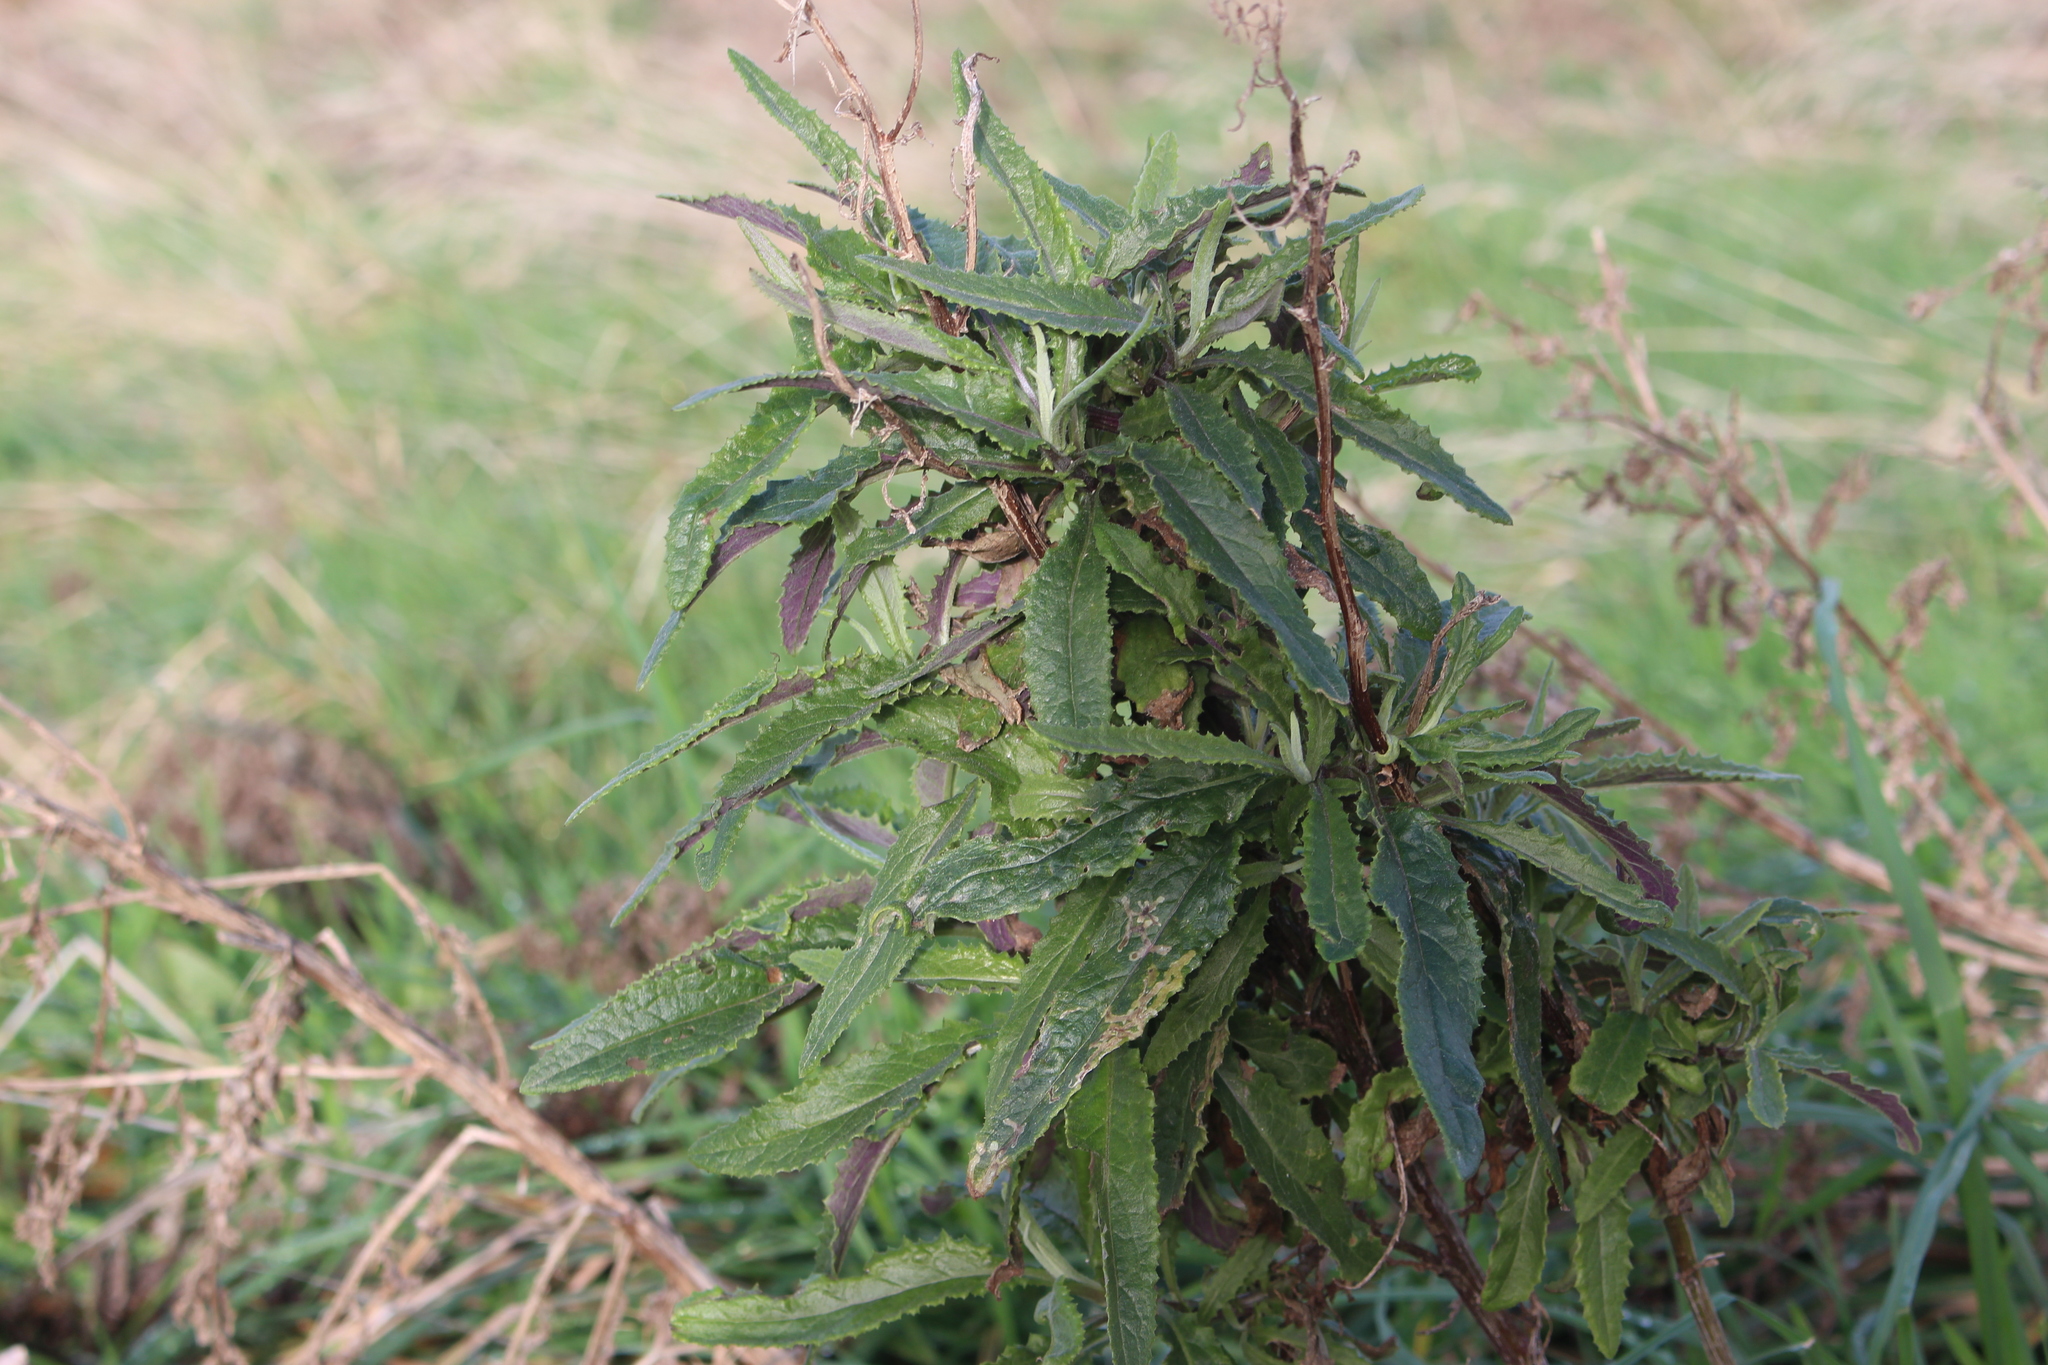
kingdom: Plantae
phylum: Tracheophyta
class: Magnoliopsida
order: Asterales
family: Asteraceae
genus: Senecio
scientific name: Senecio minimus
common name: Toothed fireweed
